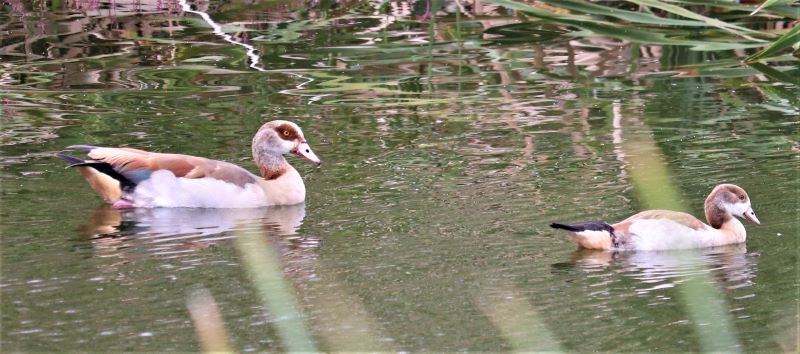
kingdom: Animalia
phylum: Chordata
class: Aves
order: Anseriformes
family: Anatidae
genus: Alopochen
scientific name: Alopochen aegyptiaca
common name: Egyptian goose
